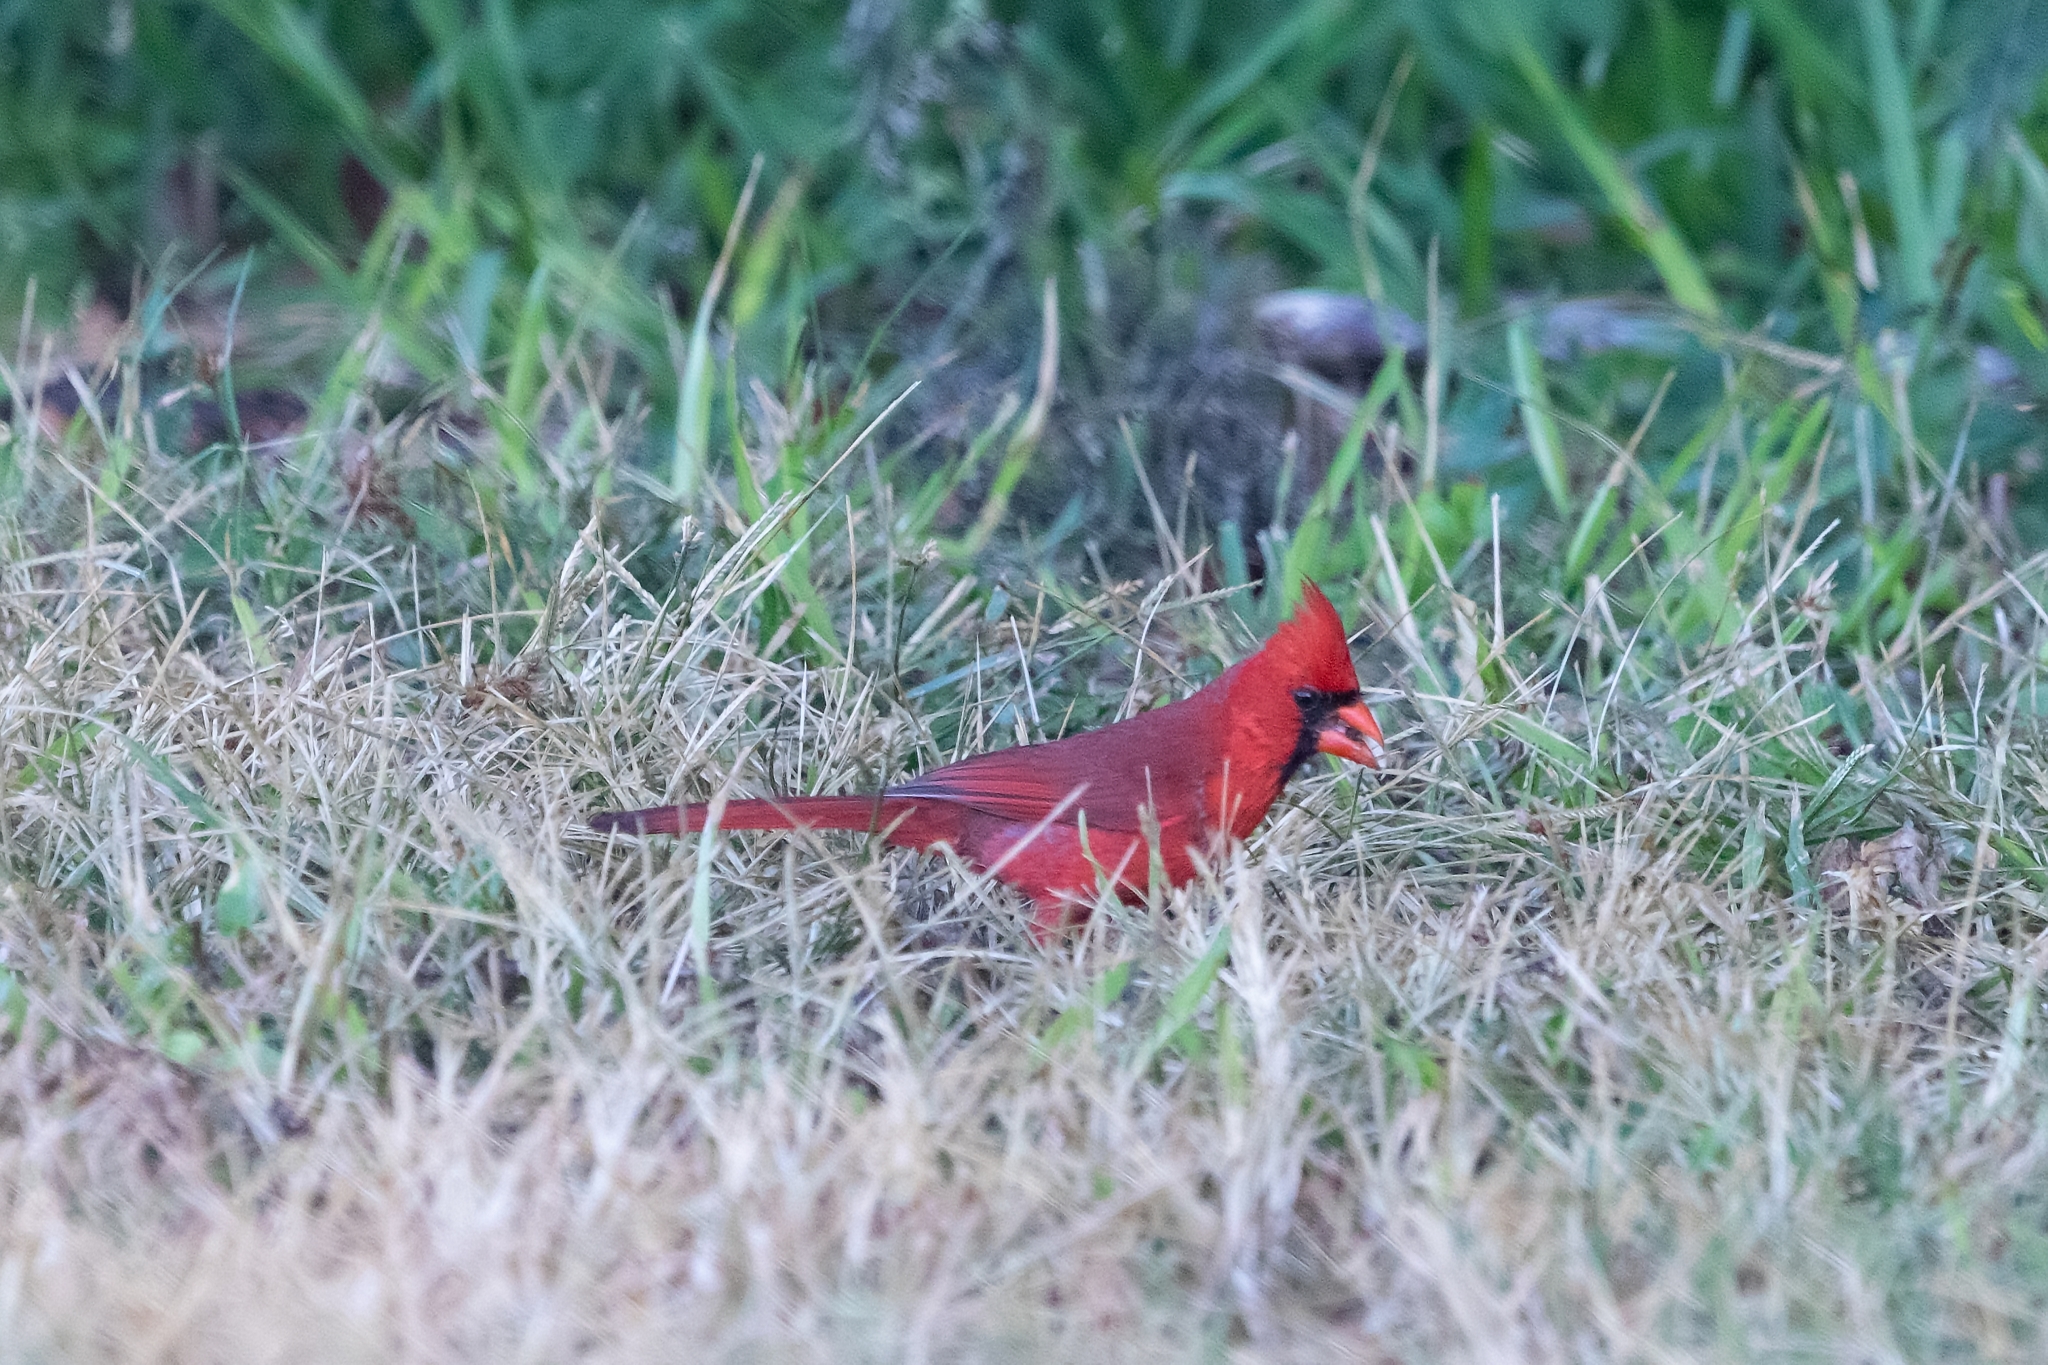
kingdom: Animalia
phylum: Chordata
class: Aves
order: Passeriformes
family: Cardinalidae
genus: Cardinalis
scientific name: Cardinalis cardinalis
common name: Northern cardinal
